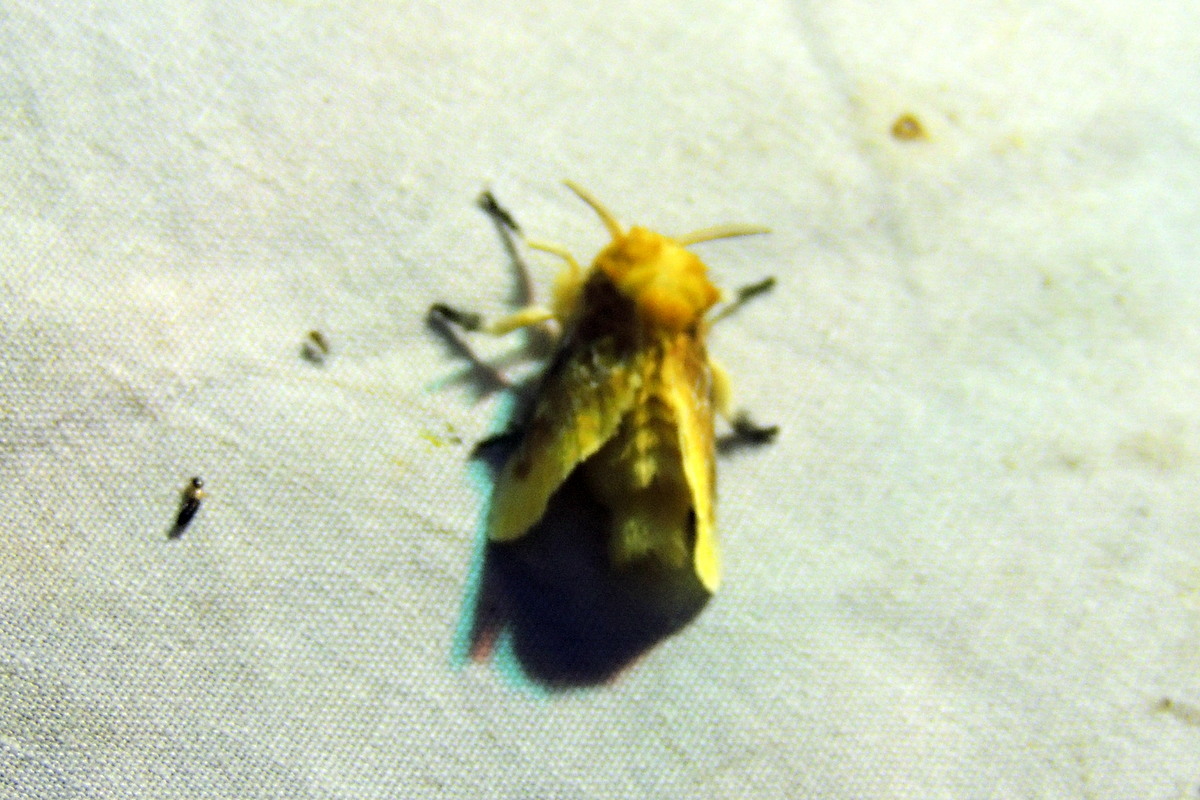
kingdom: Animalia
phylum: Arthropoda
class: Insecta
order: Lepidoptera
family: Megalopygidae
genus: Megalopyge
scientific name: Megalopyge opercularis
